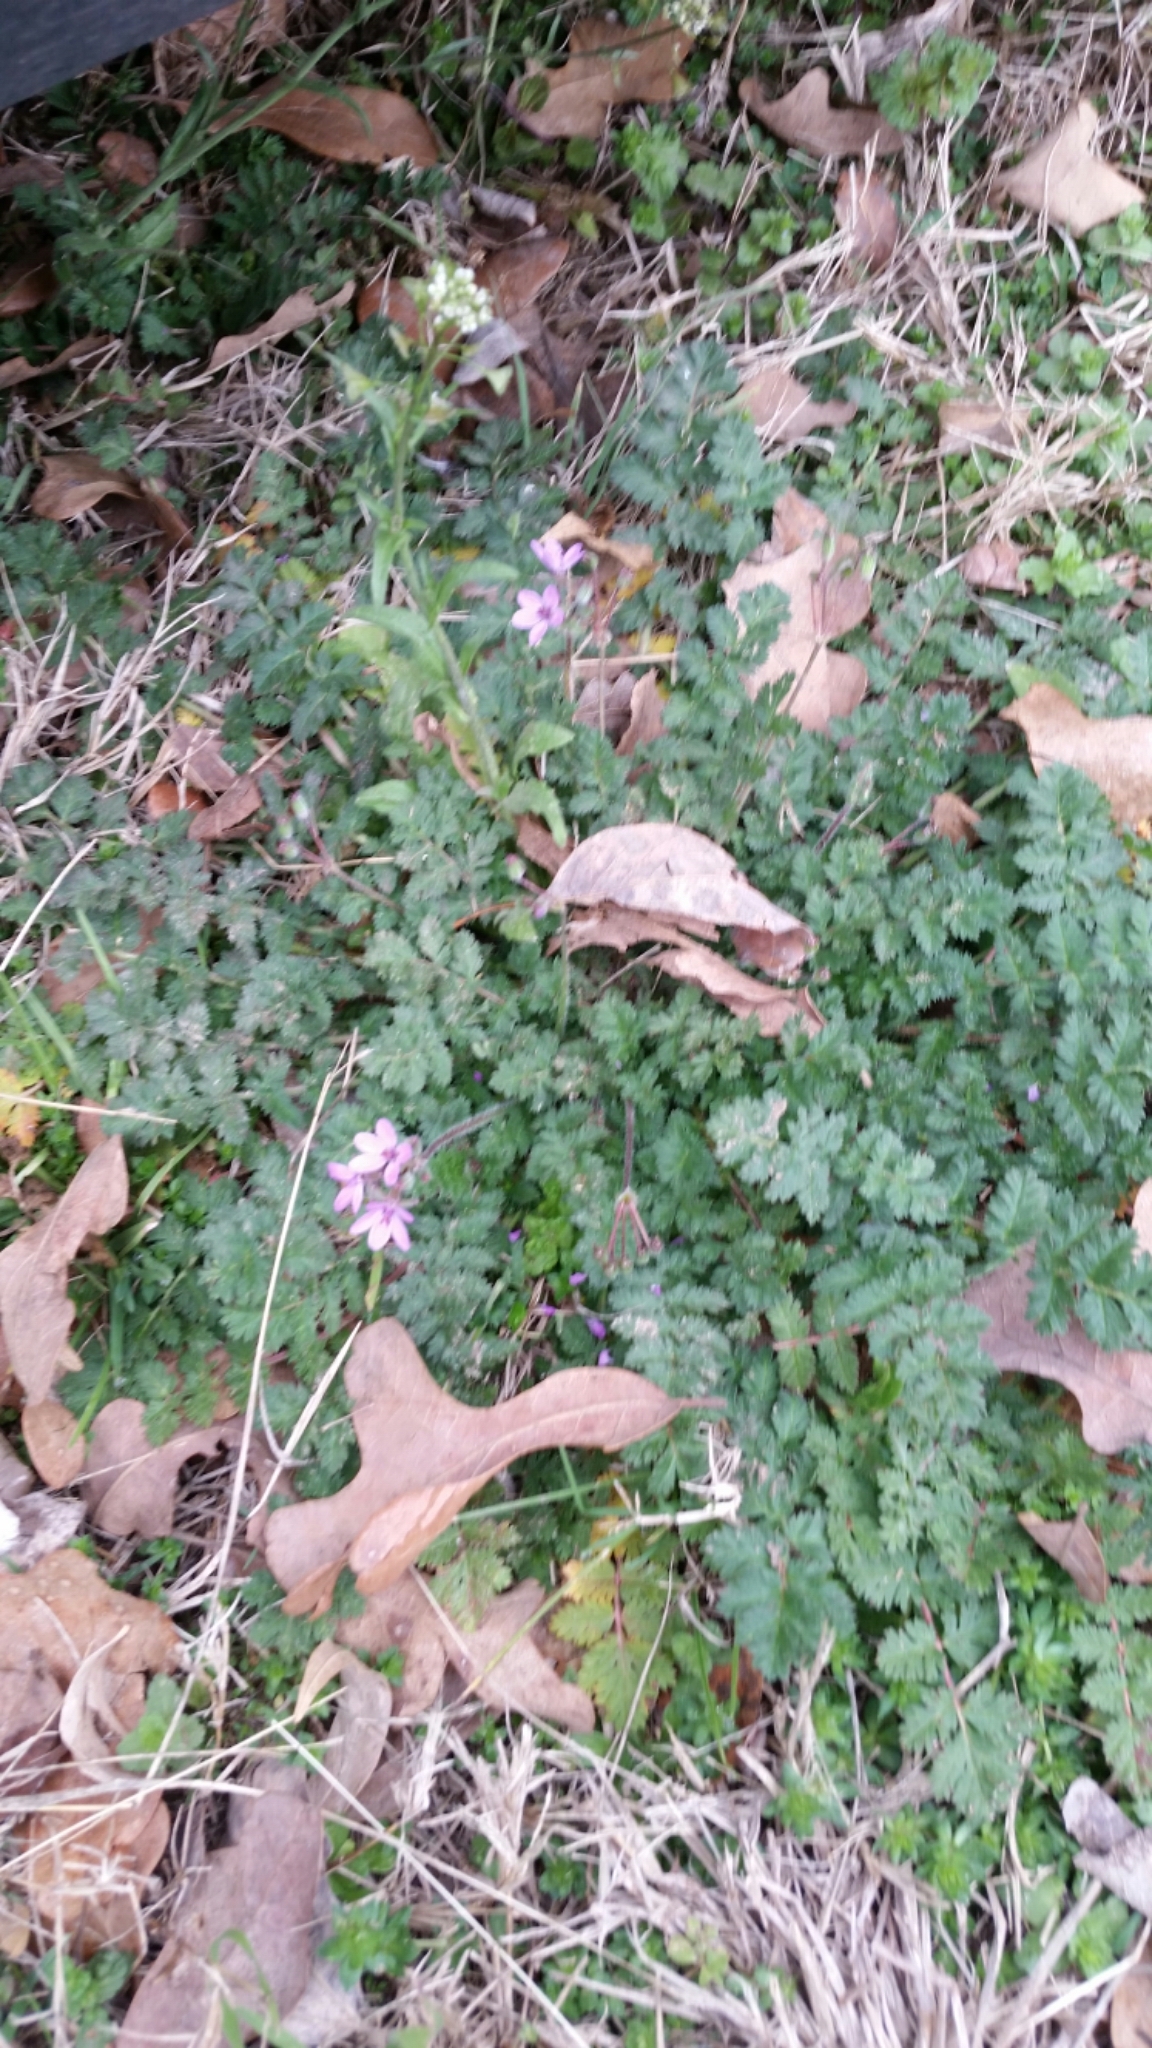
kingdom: Plantae
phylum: Tracheophyta
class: Magnoliopsida
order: Geraniales
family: Geraniaceae
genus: Erodium
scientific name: Erodium cicutarium
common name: Common stork's-bill
